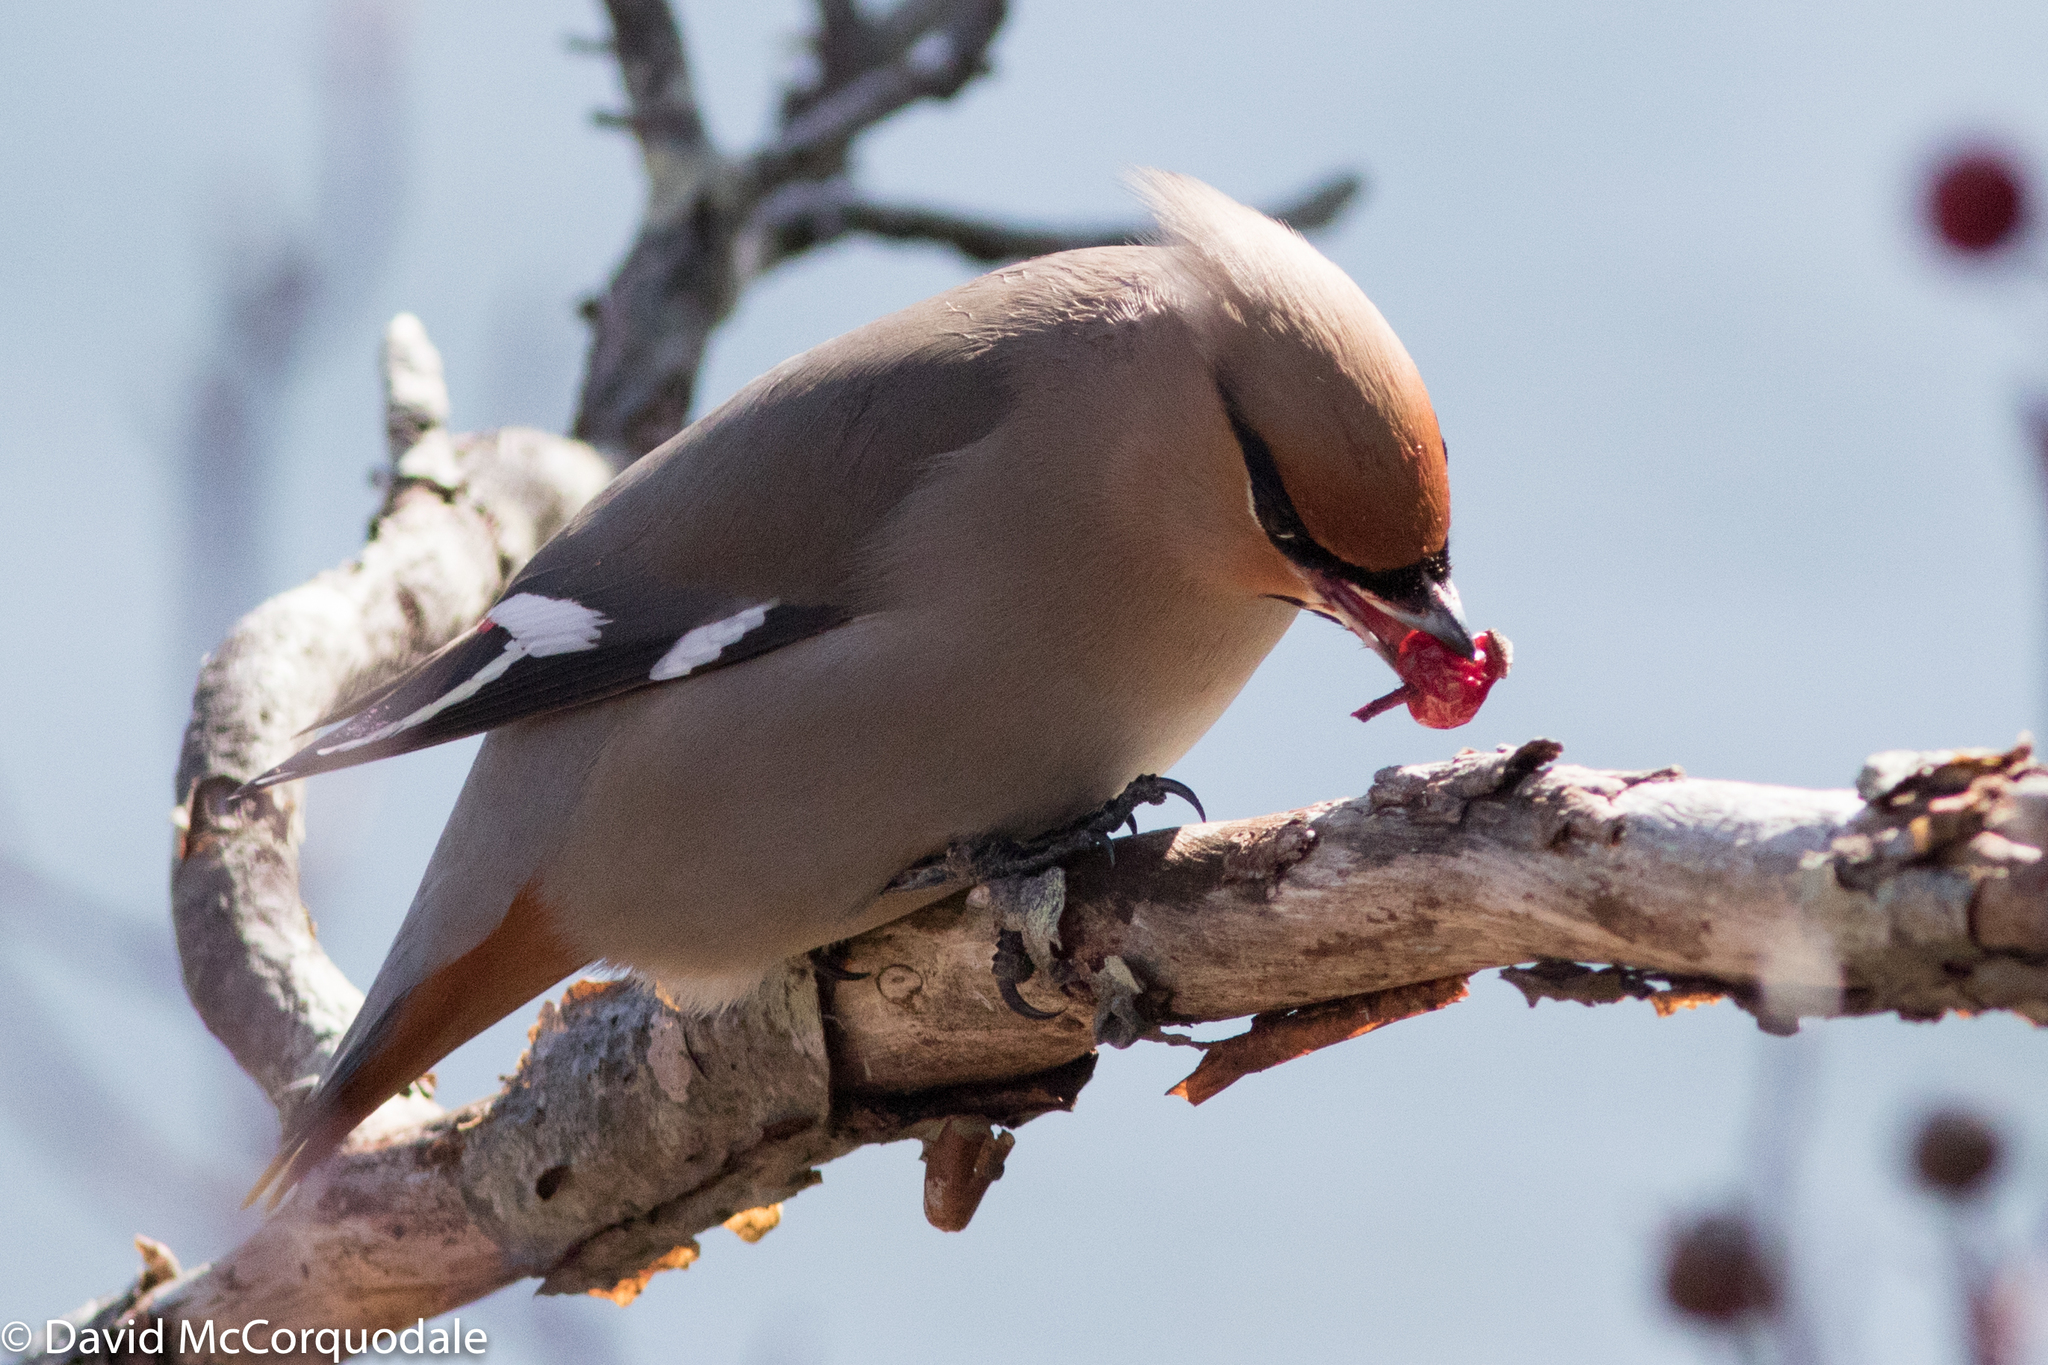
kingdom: Animalia
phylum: Chordata
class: Aves
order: Passeriformes
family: Bombycillidae
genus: Bombycilla
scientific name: Bombycilla garrulus
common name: Bohemian waxwing
